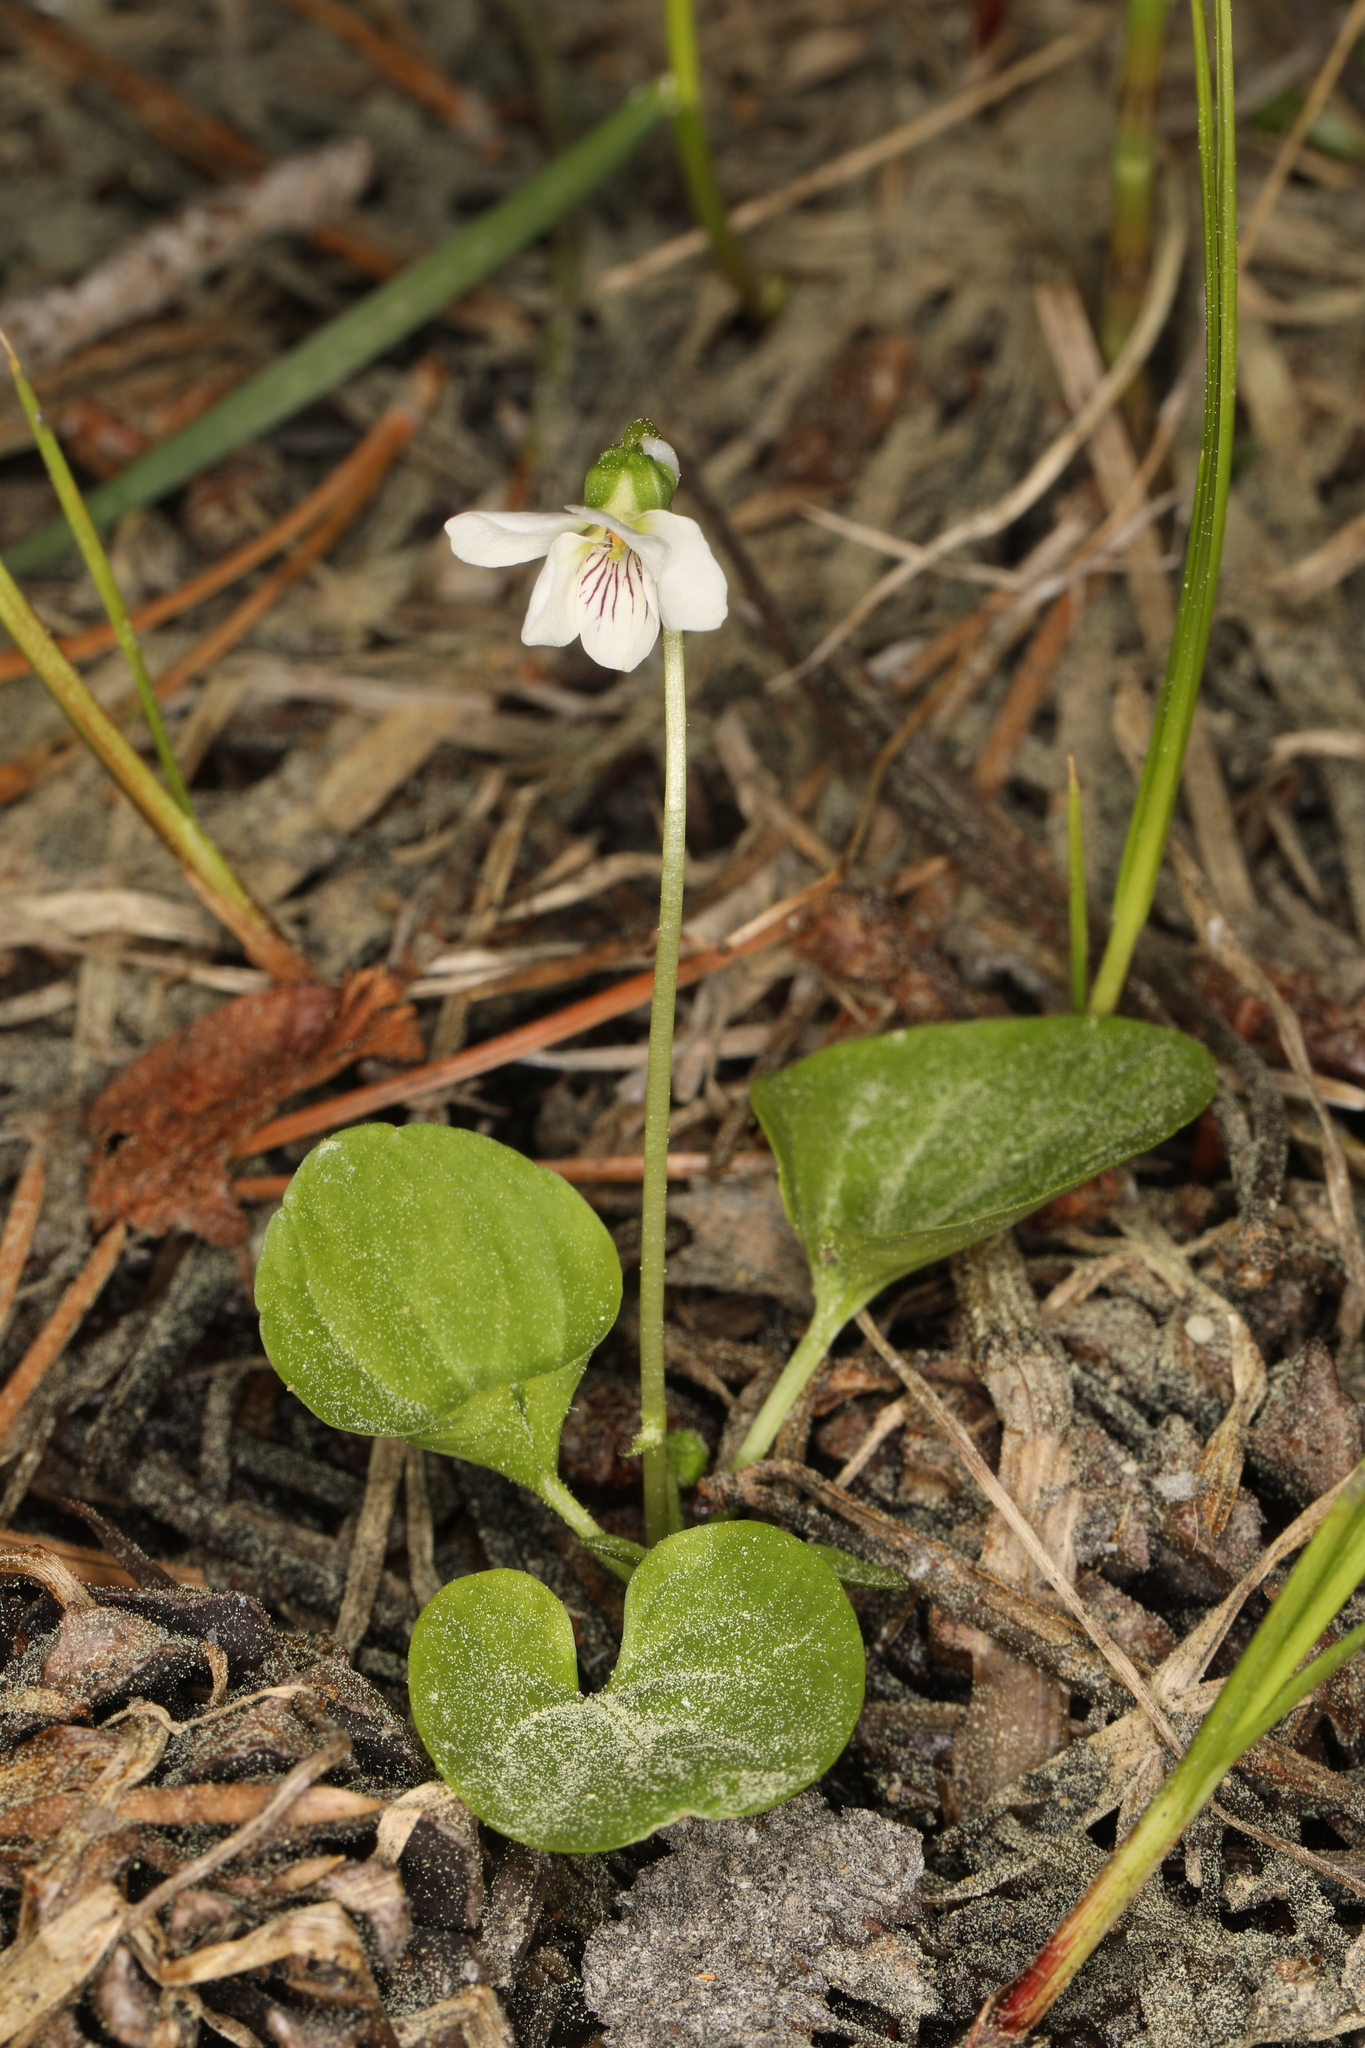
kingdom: Plantae
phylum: Tracheophyta
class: Magnoliopsida
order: Malpighiales
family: Violaceae
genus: Viola
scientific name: Viola macloskeyi
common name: Macloskey's violet
